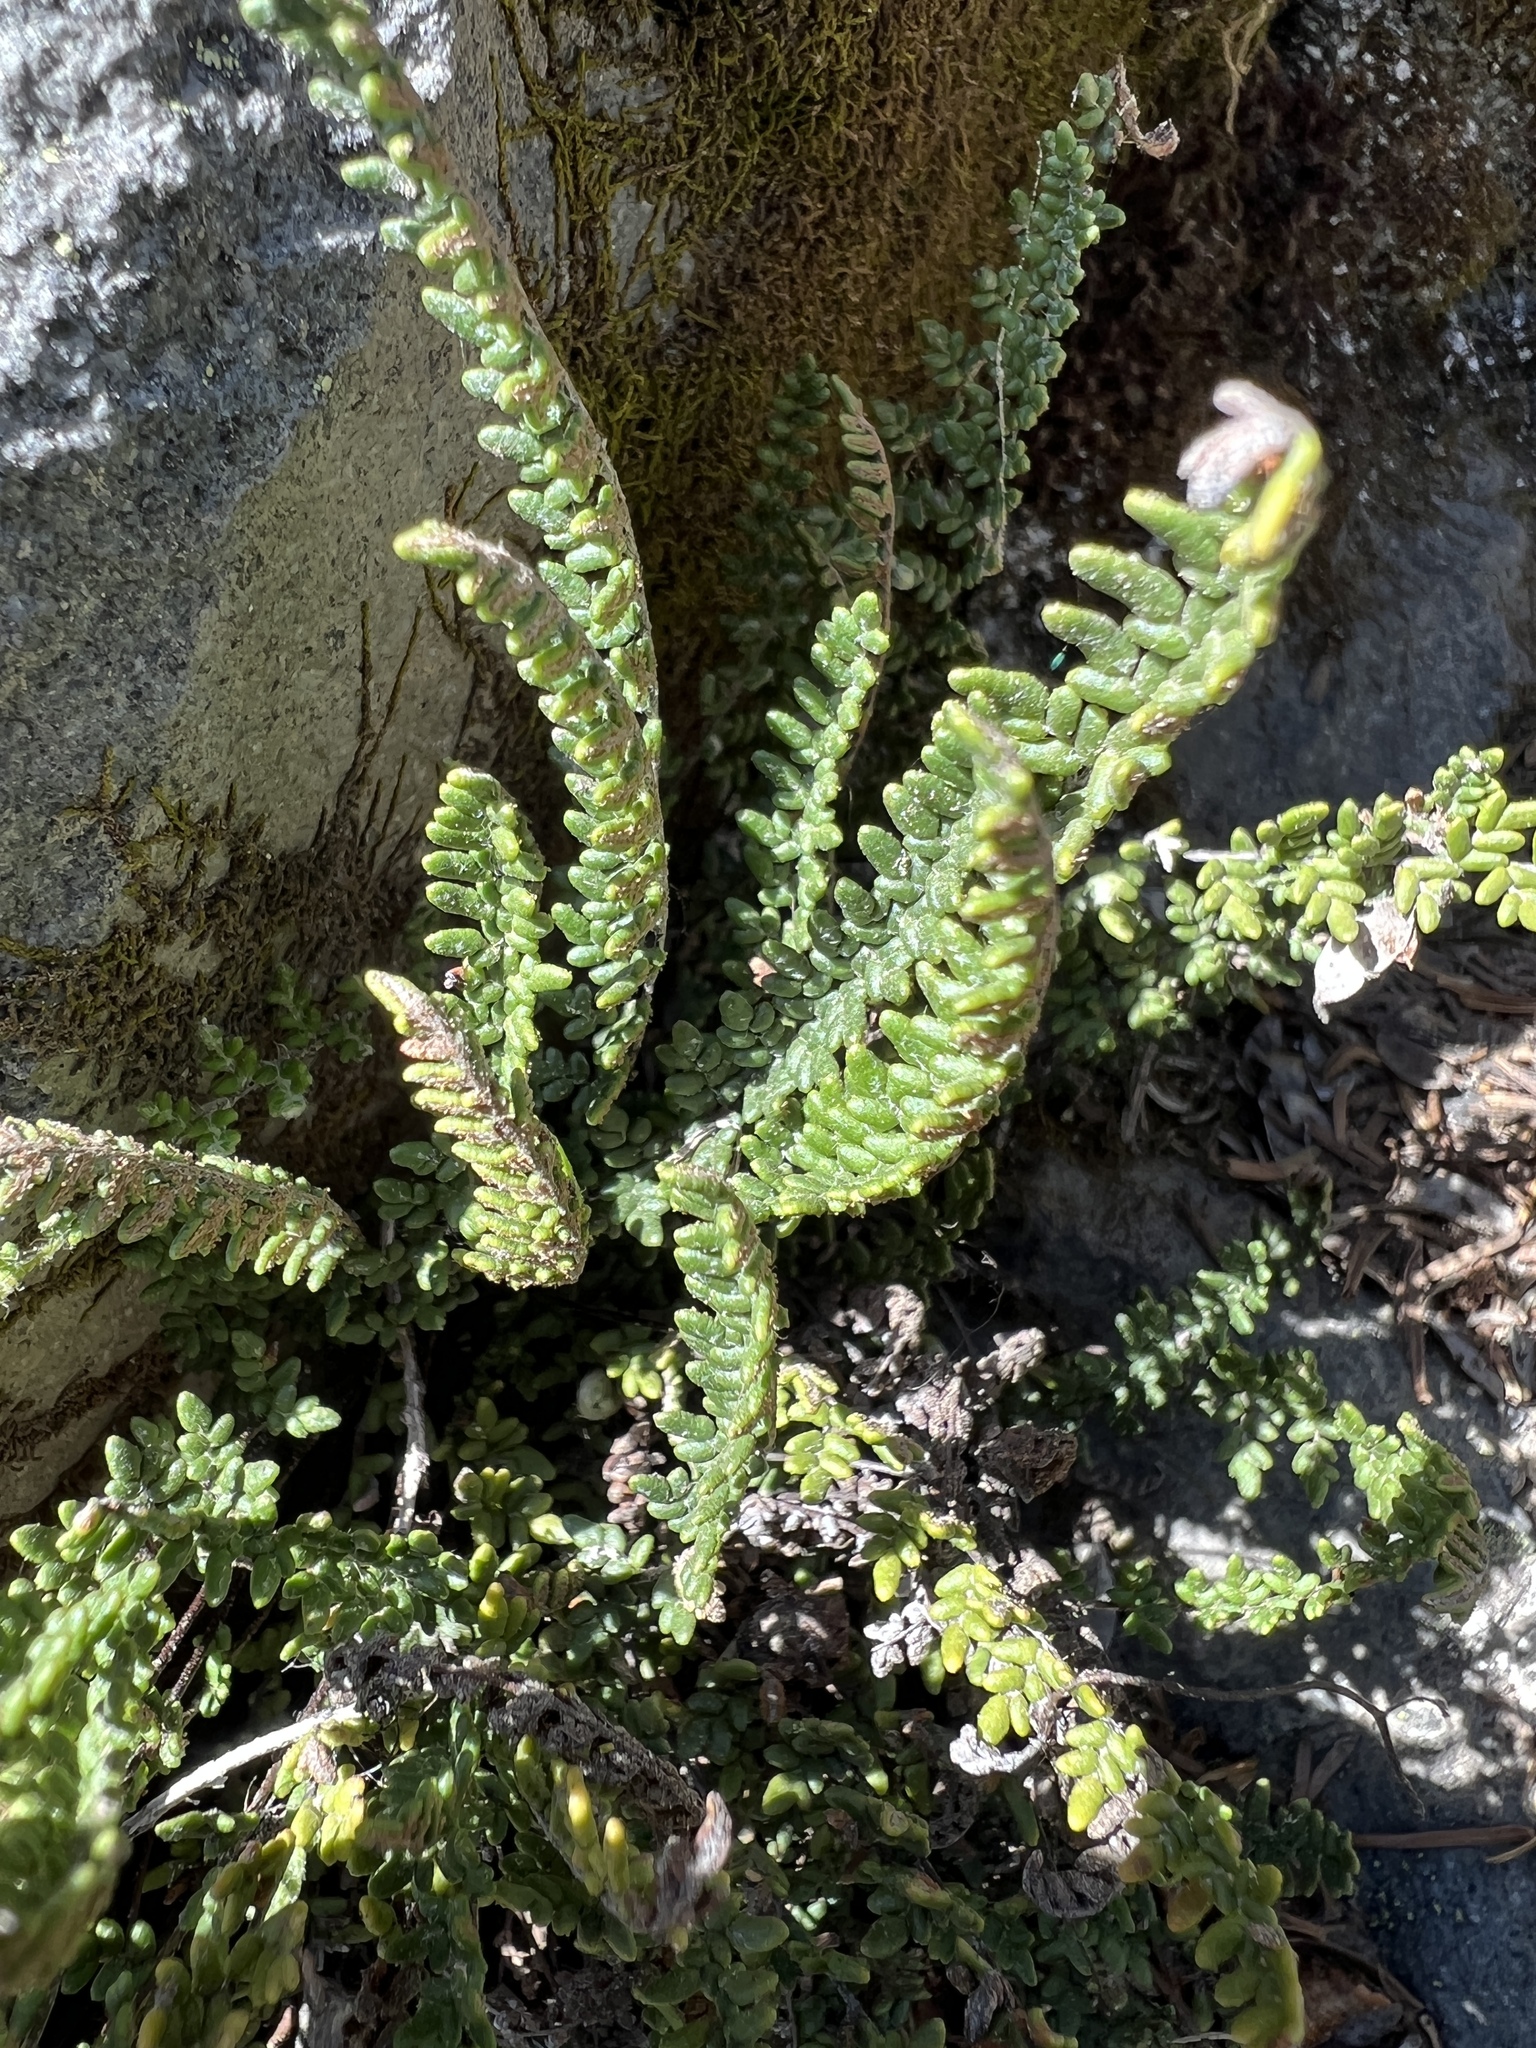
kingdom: Plantae
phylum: Tracheophyta
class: Polypodiopsida
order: Polypodiales
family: Pteridaceae
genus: Myriopteris
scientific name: Myriopteris gracillima
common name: Lace fern
